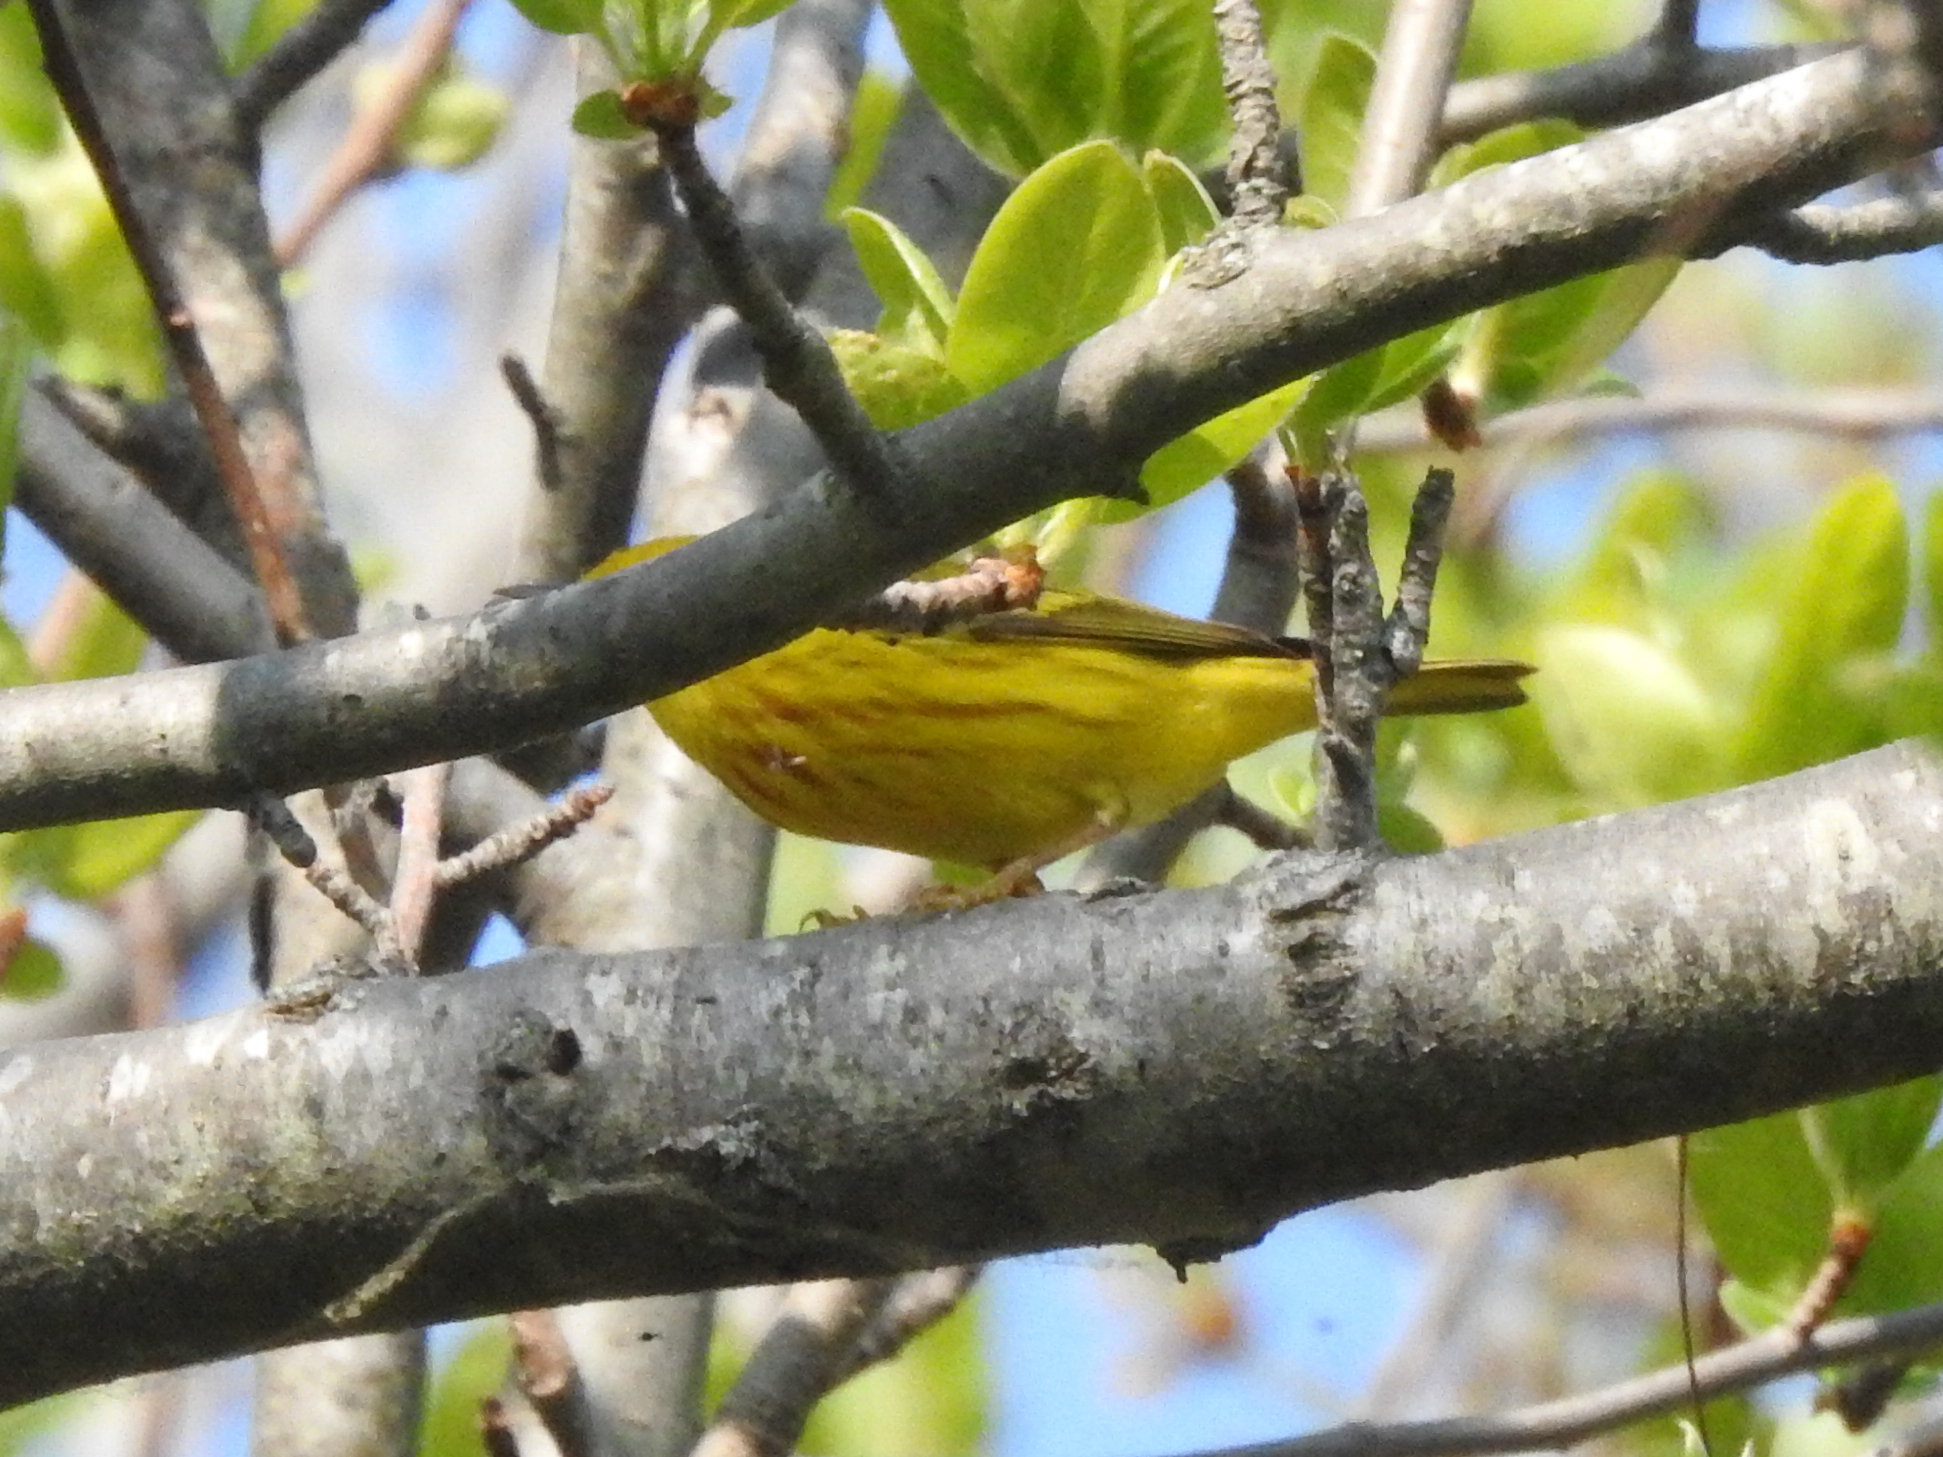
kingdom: Animalia
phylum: Chordata
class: Aves
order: Passeriformes
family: Parulidae
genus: Setophaga
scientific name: Setophaga petechia
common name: Yellow warbler
